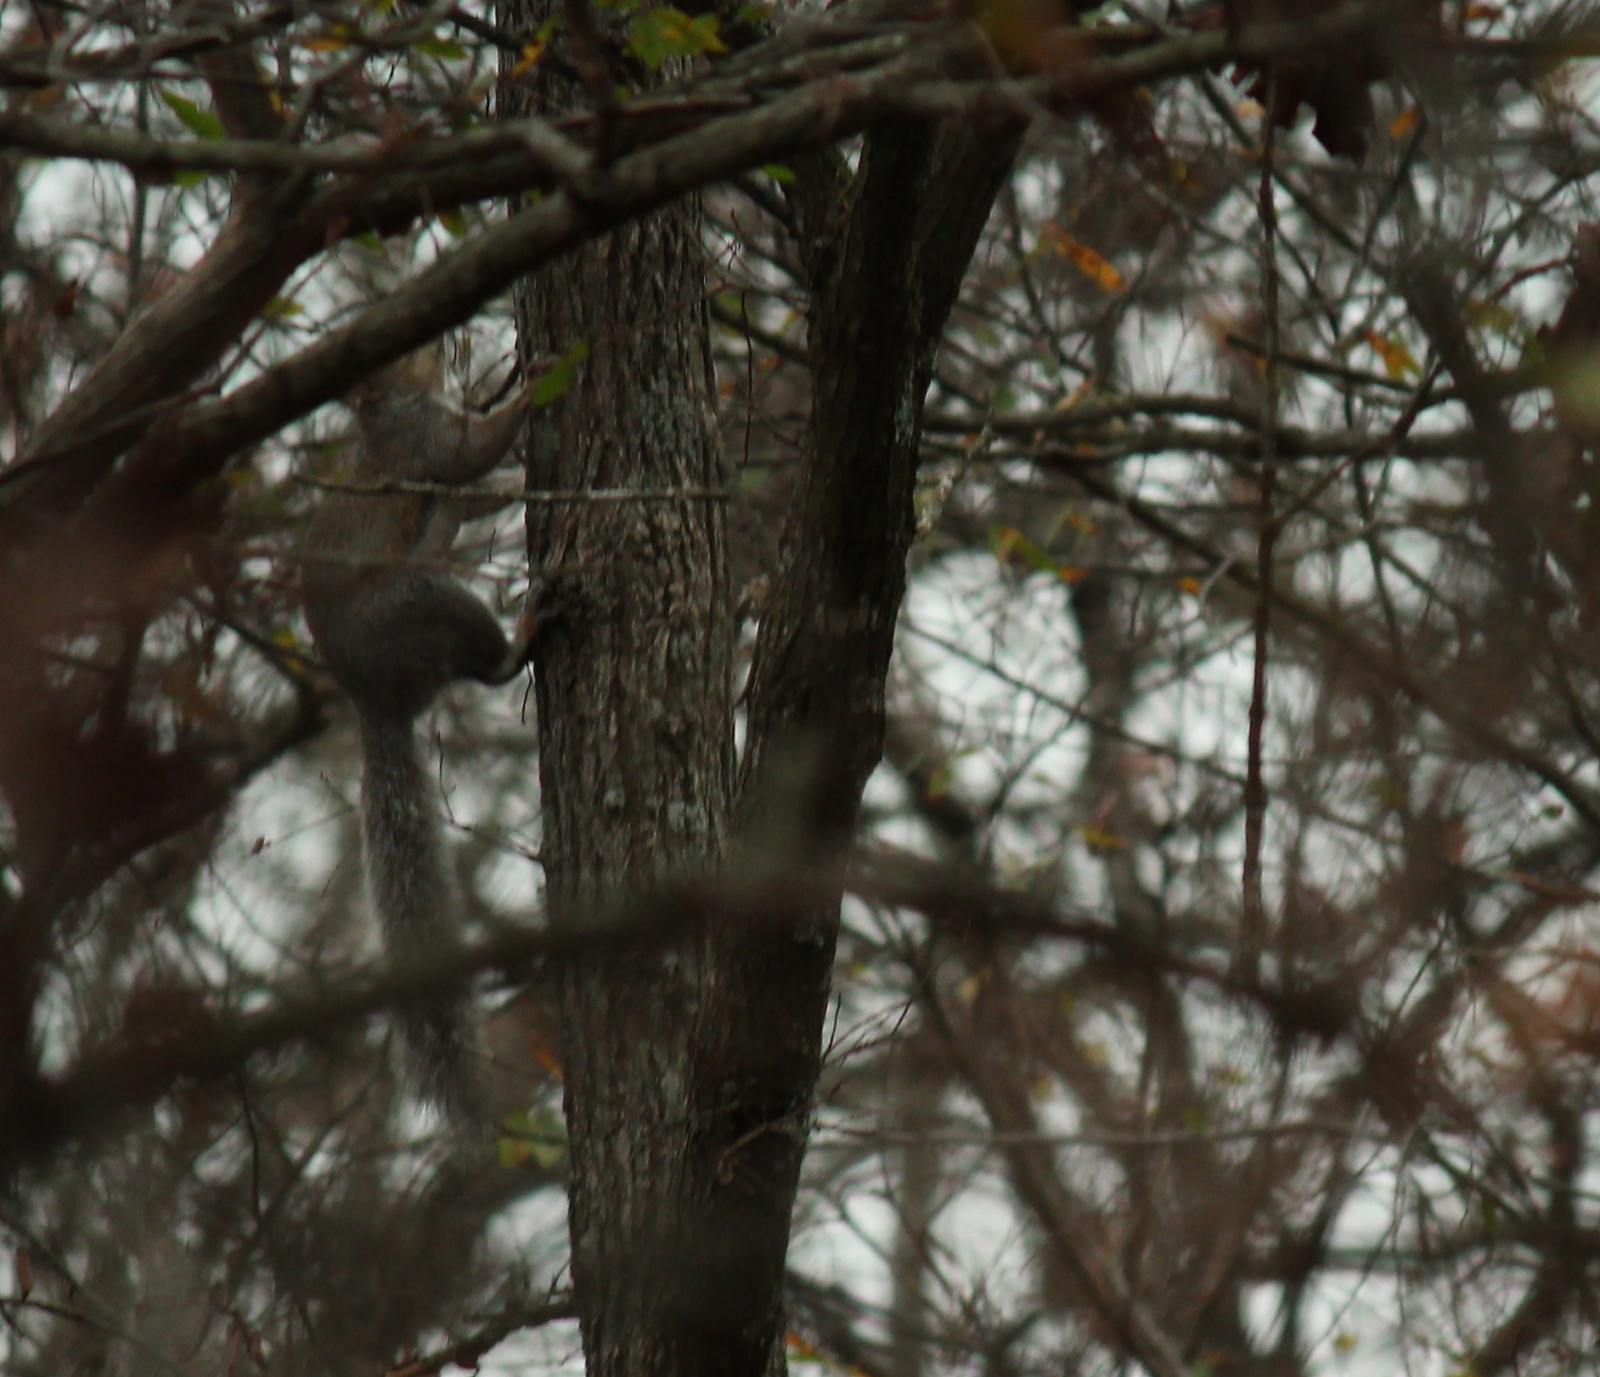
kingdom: Animalia
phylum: Chordata
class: Mammalia
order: Rodentia
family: Sciuridae
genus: Sciurus
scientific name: Sciurus carolinensis
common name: Eastern gray squirrel
